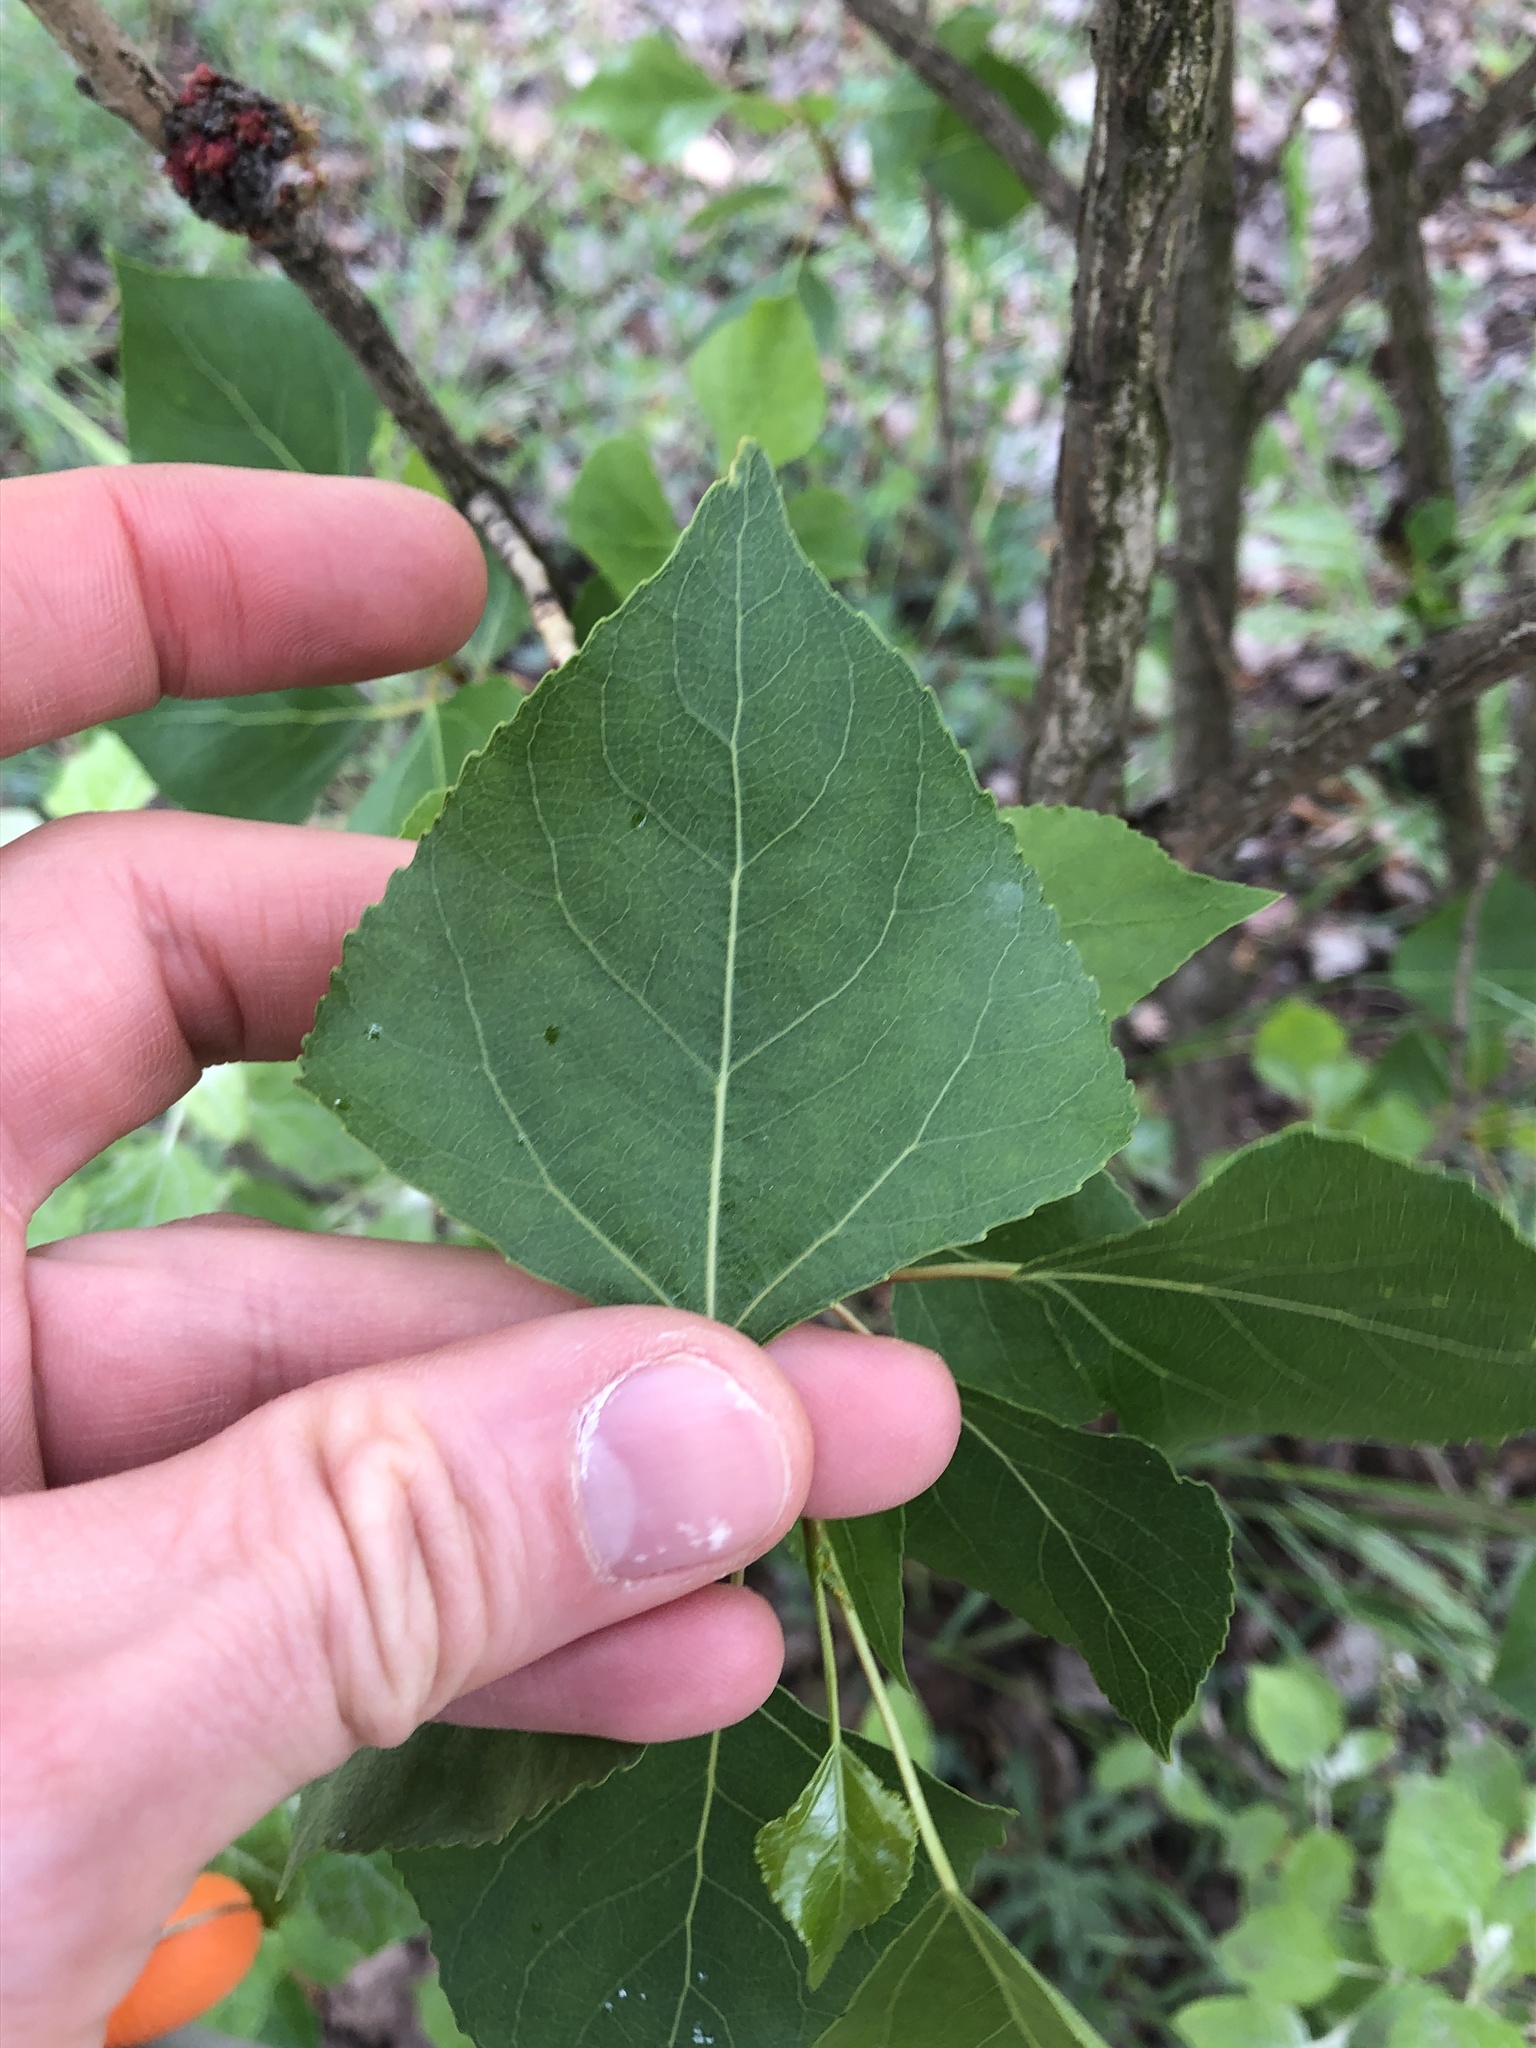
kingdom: Animalia
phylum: Arthropoda
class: Arachnida
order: Trombidiformes
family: Eriophyidae
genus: Aceria
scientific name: Aceria populi
